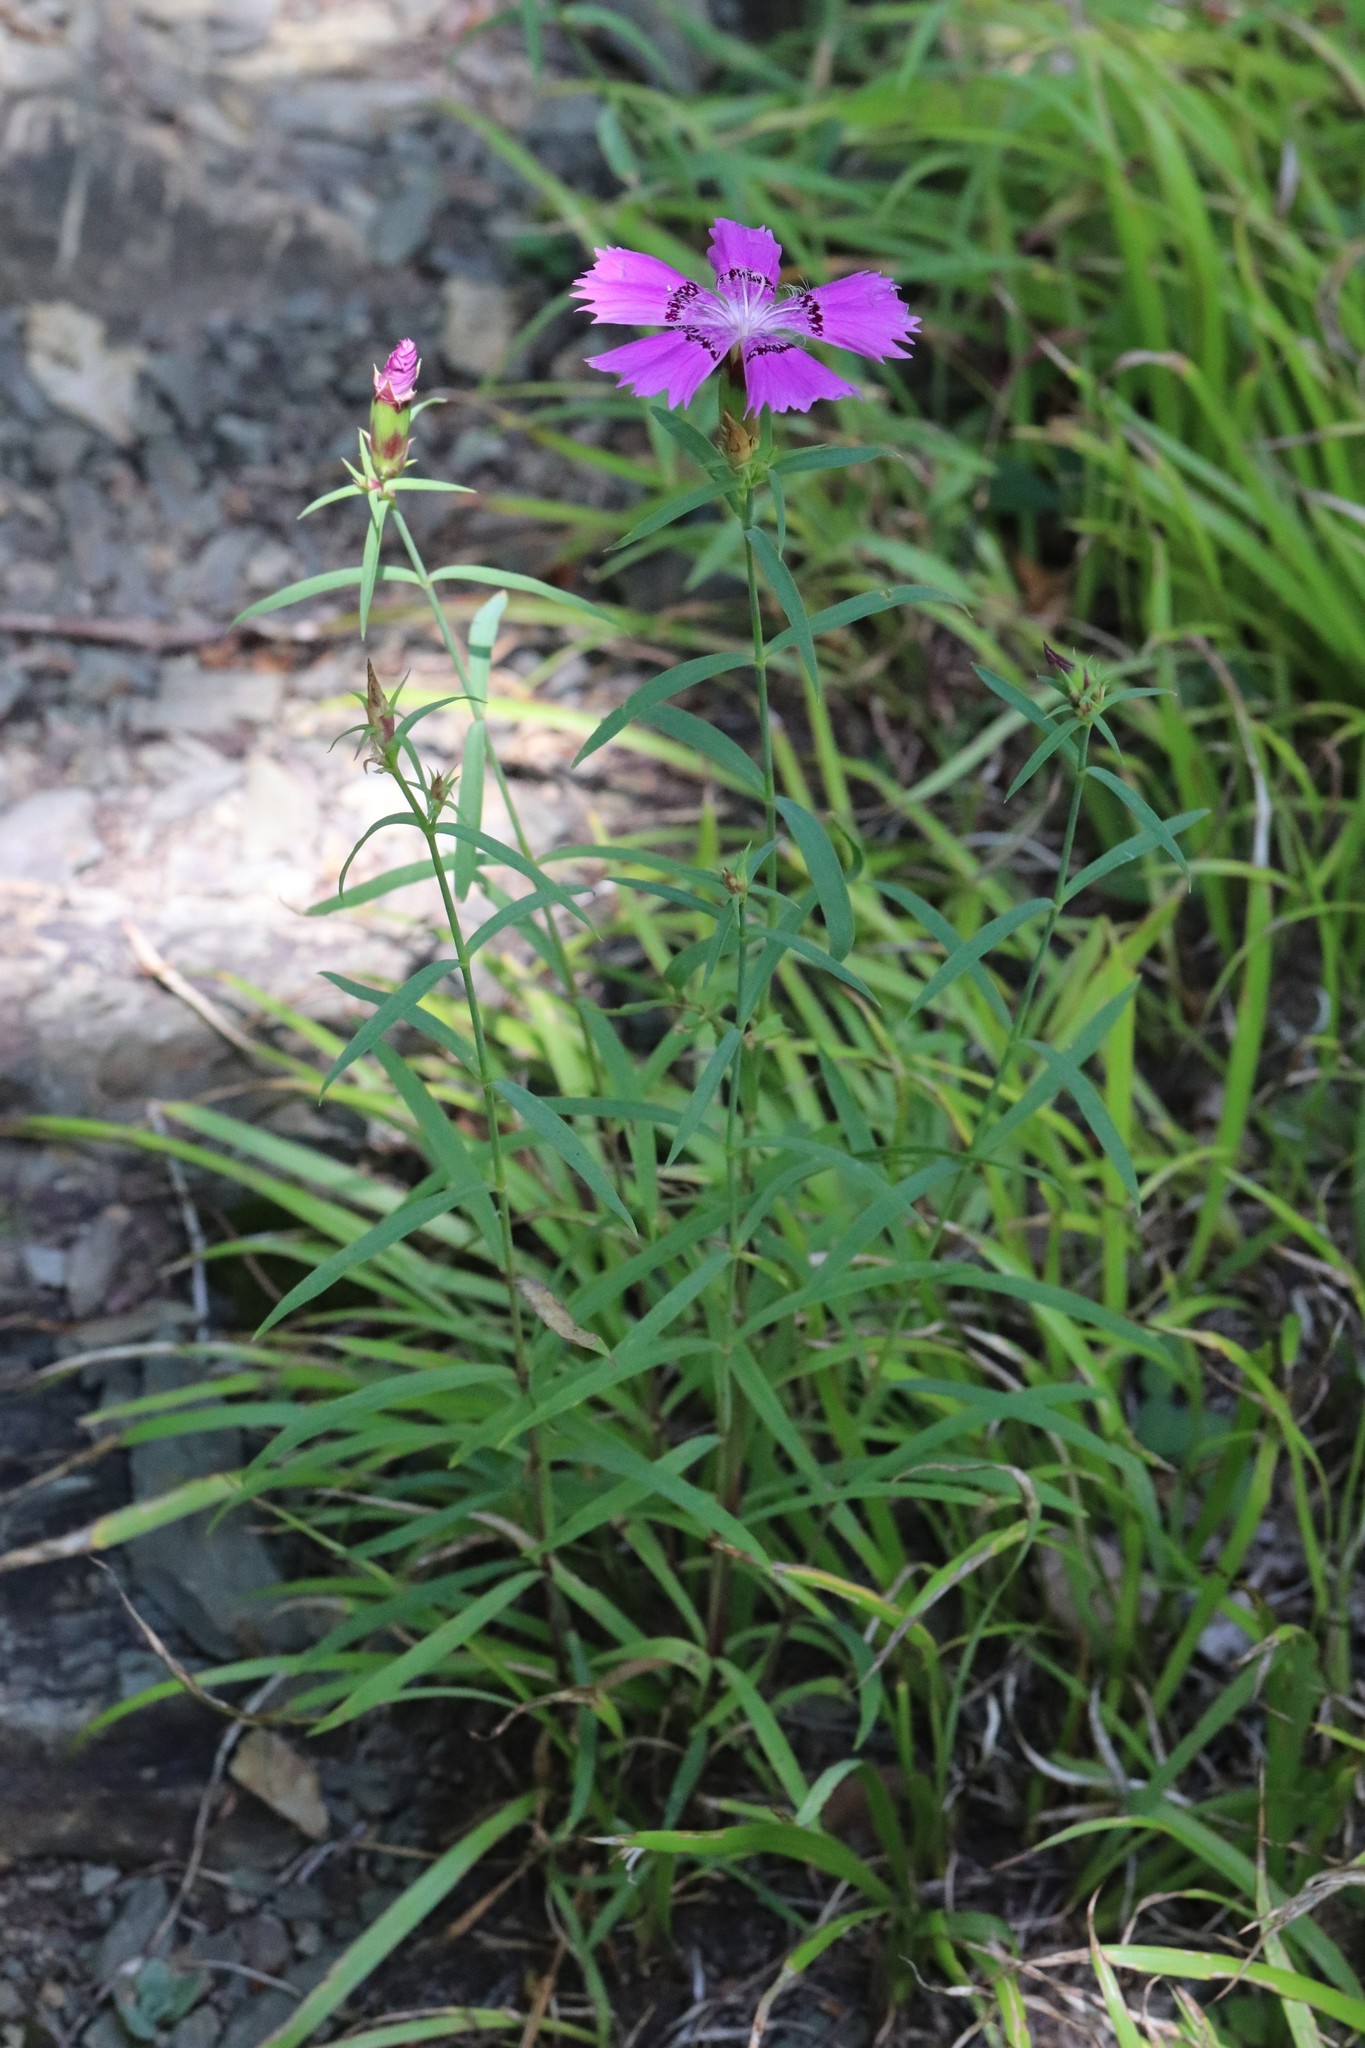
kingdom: Plantae
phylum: Tracheophyta
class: Magnoliopsida
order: Caryophyllales
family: Caryophyllaceae
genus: Dianthus
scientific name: Dianthus chinensis
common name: Rainbow pink
